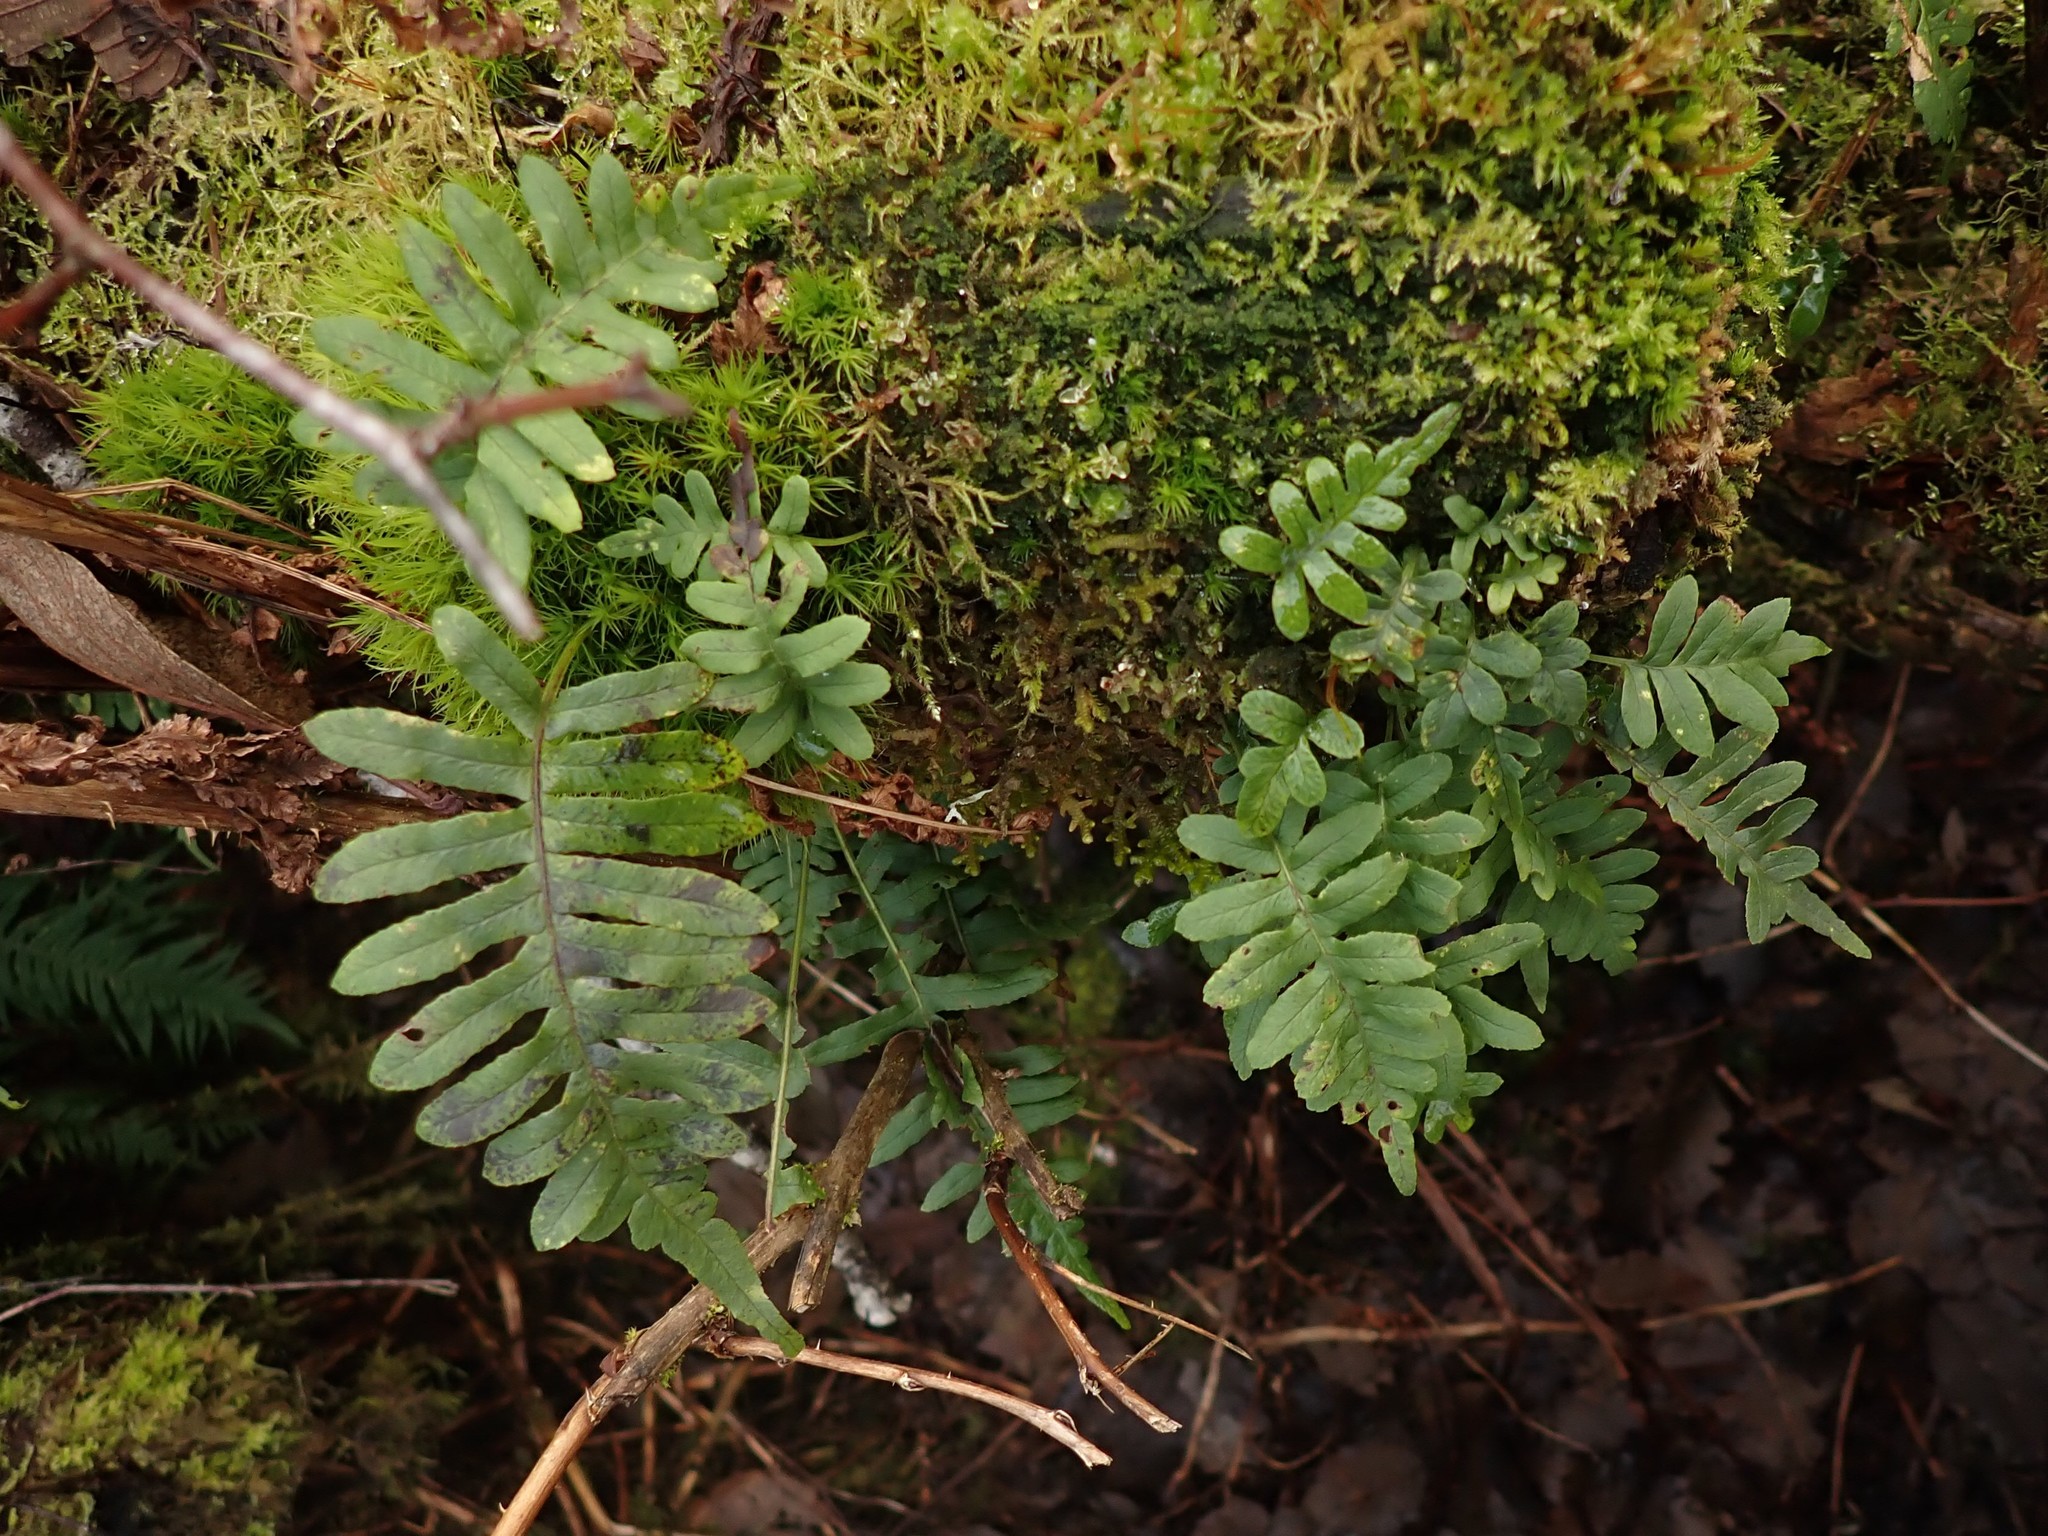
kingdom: Plantae
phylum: Tracheophyta
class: Polypodiopsida
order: Polypodiales
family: Polypodiaceae
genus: Polypodium
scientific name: Polypodium glycyrrhiza
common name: Licorice fern
